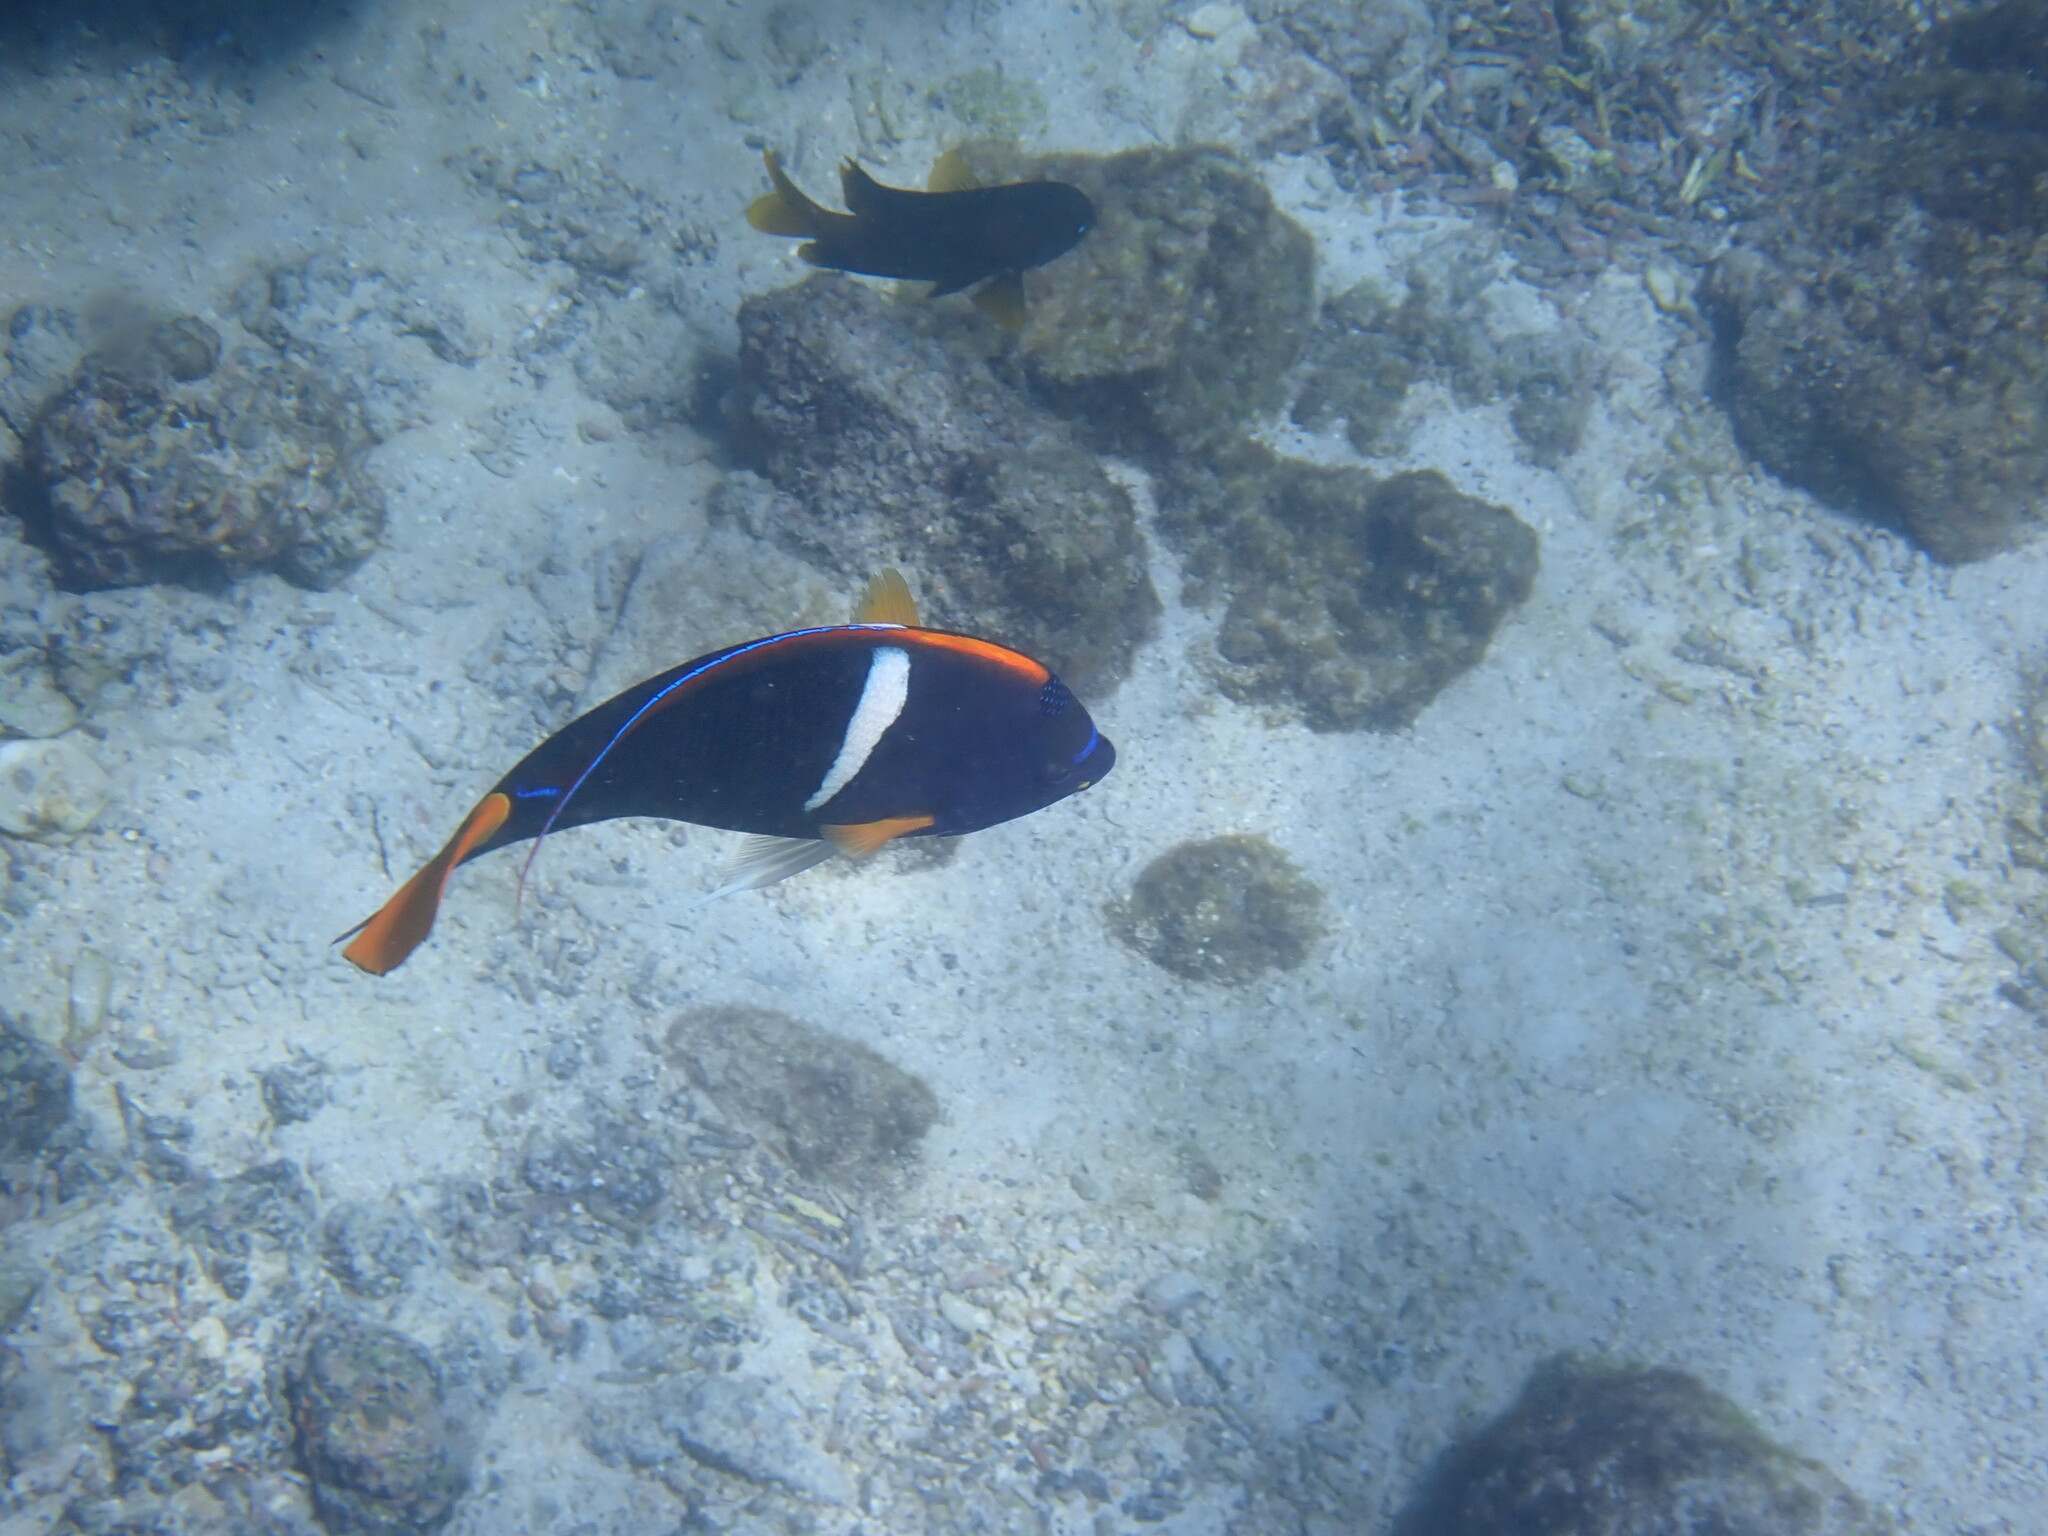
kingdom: Animalia
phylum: Chordata
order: Perciformes
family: Pomacanthidae
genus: Holacanthus
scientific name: Holacanthus passer
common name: King angelfish
